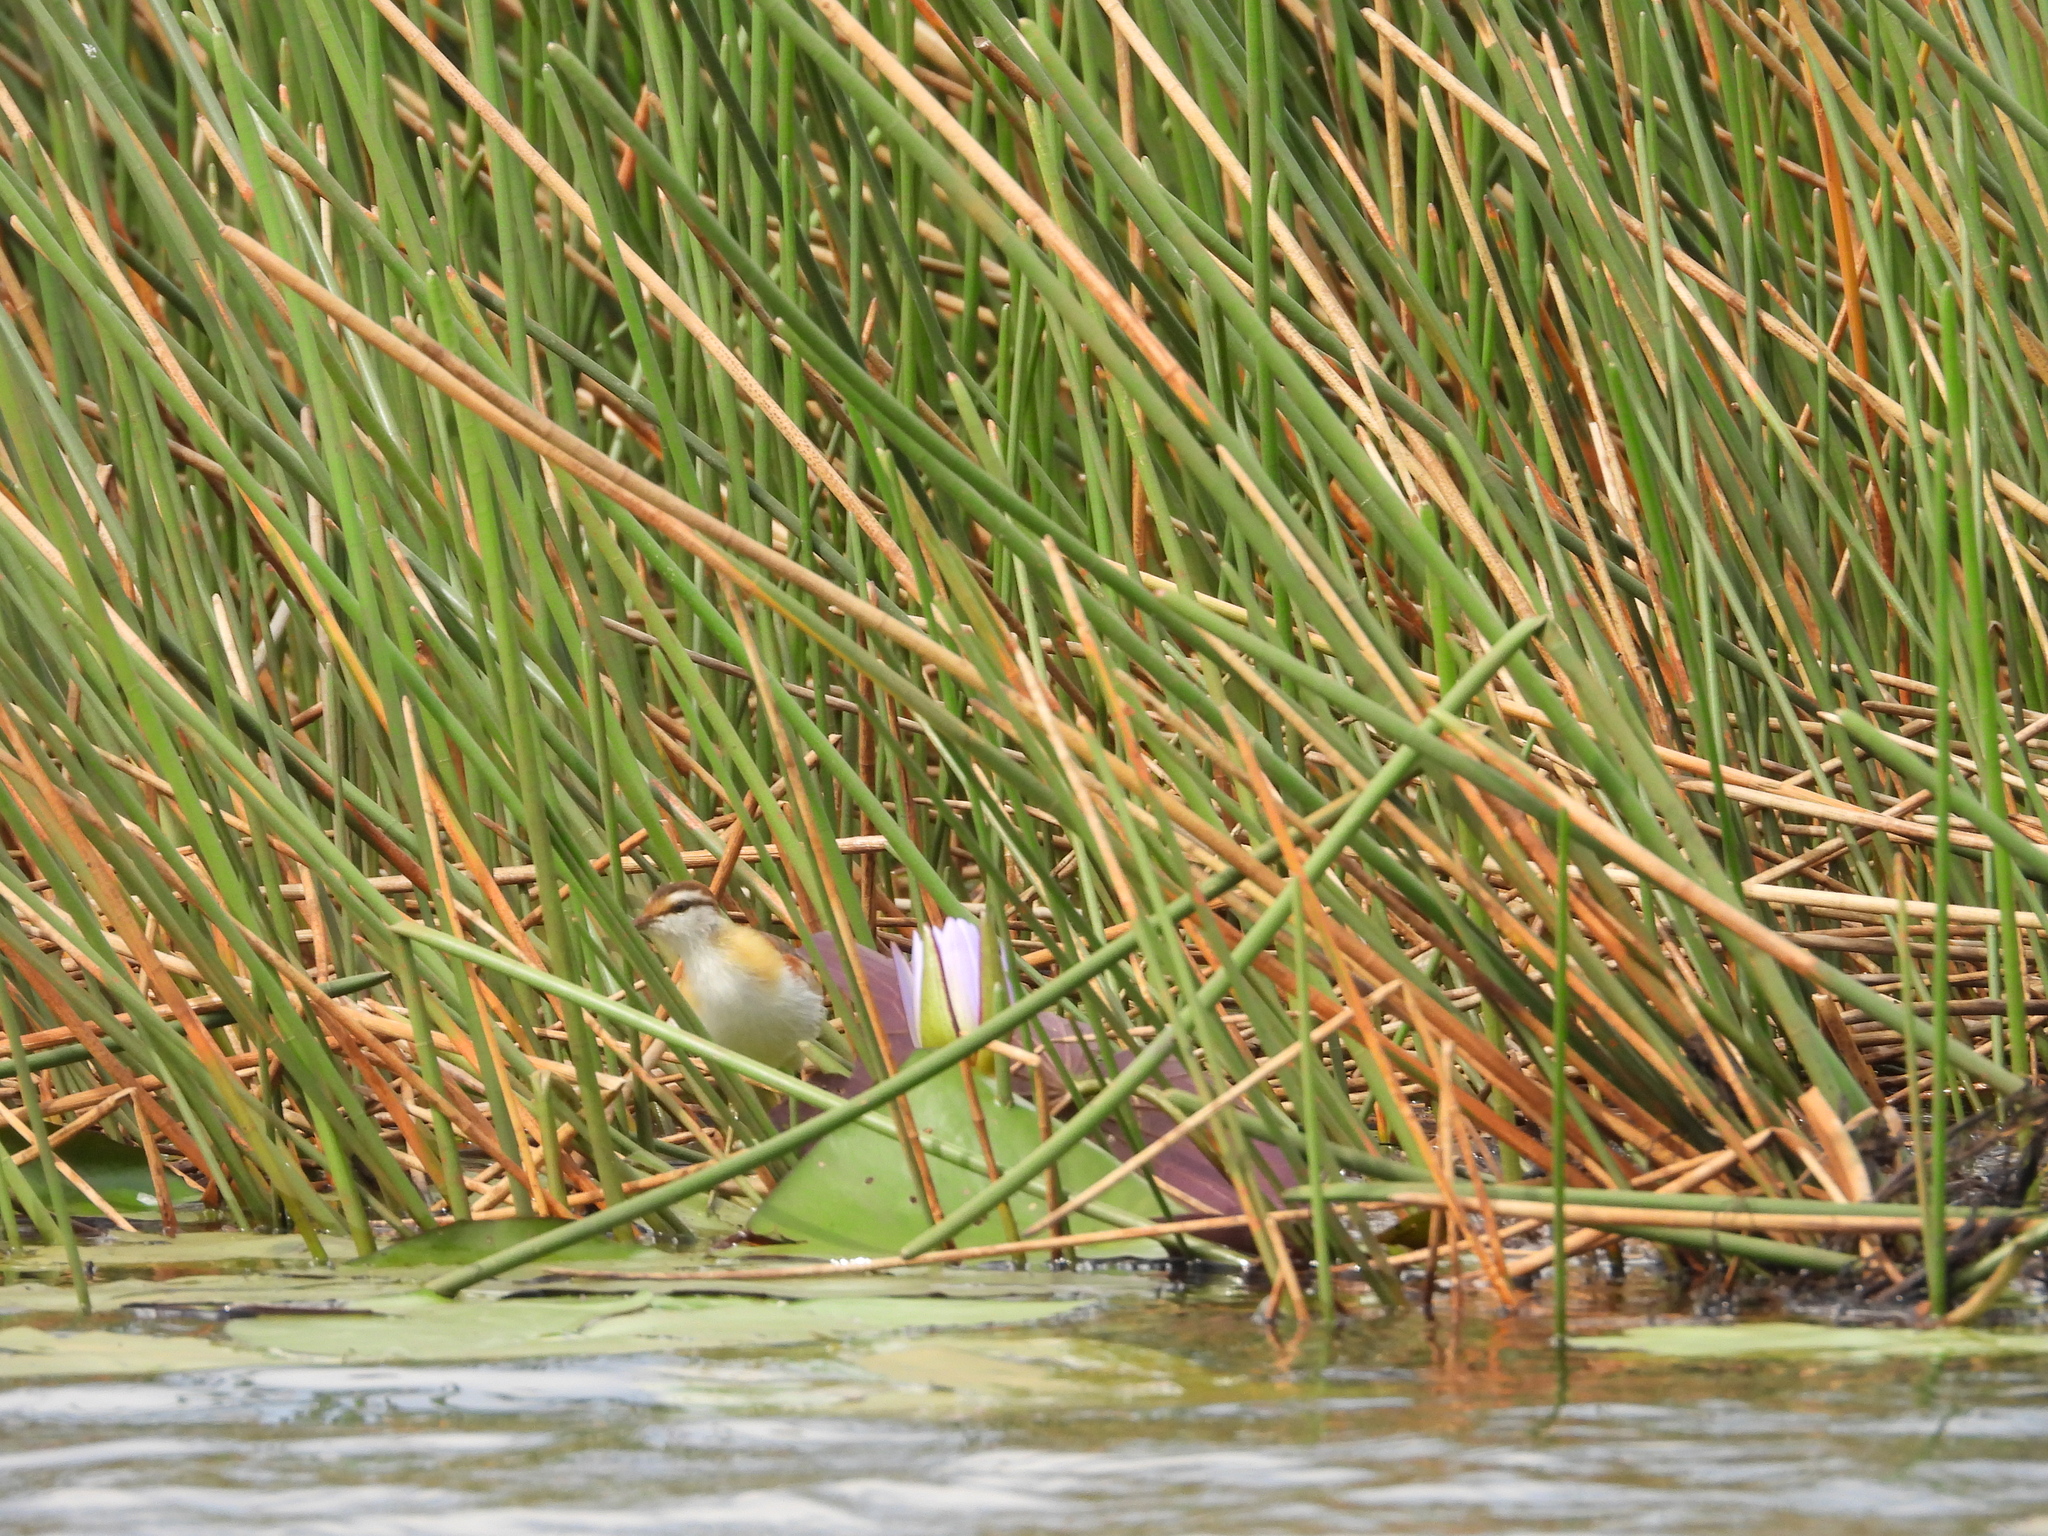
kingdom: Animalia
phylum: Chordata
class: Aves
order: Charadriiformes
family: Jacanidae
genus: Microparra
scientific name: Microparra capensis
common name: Lesser jacana
